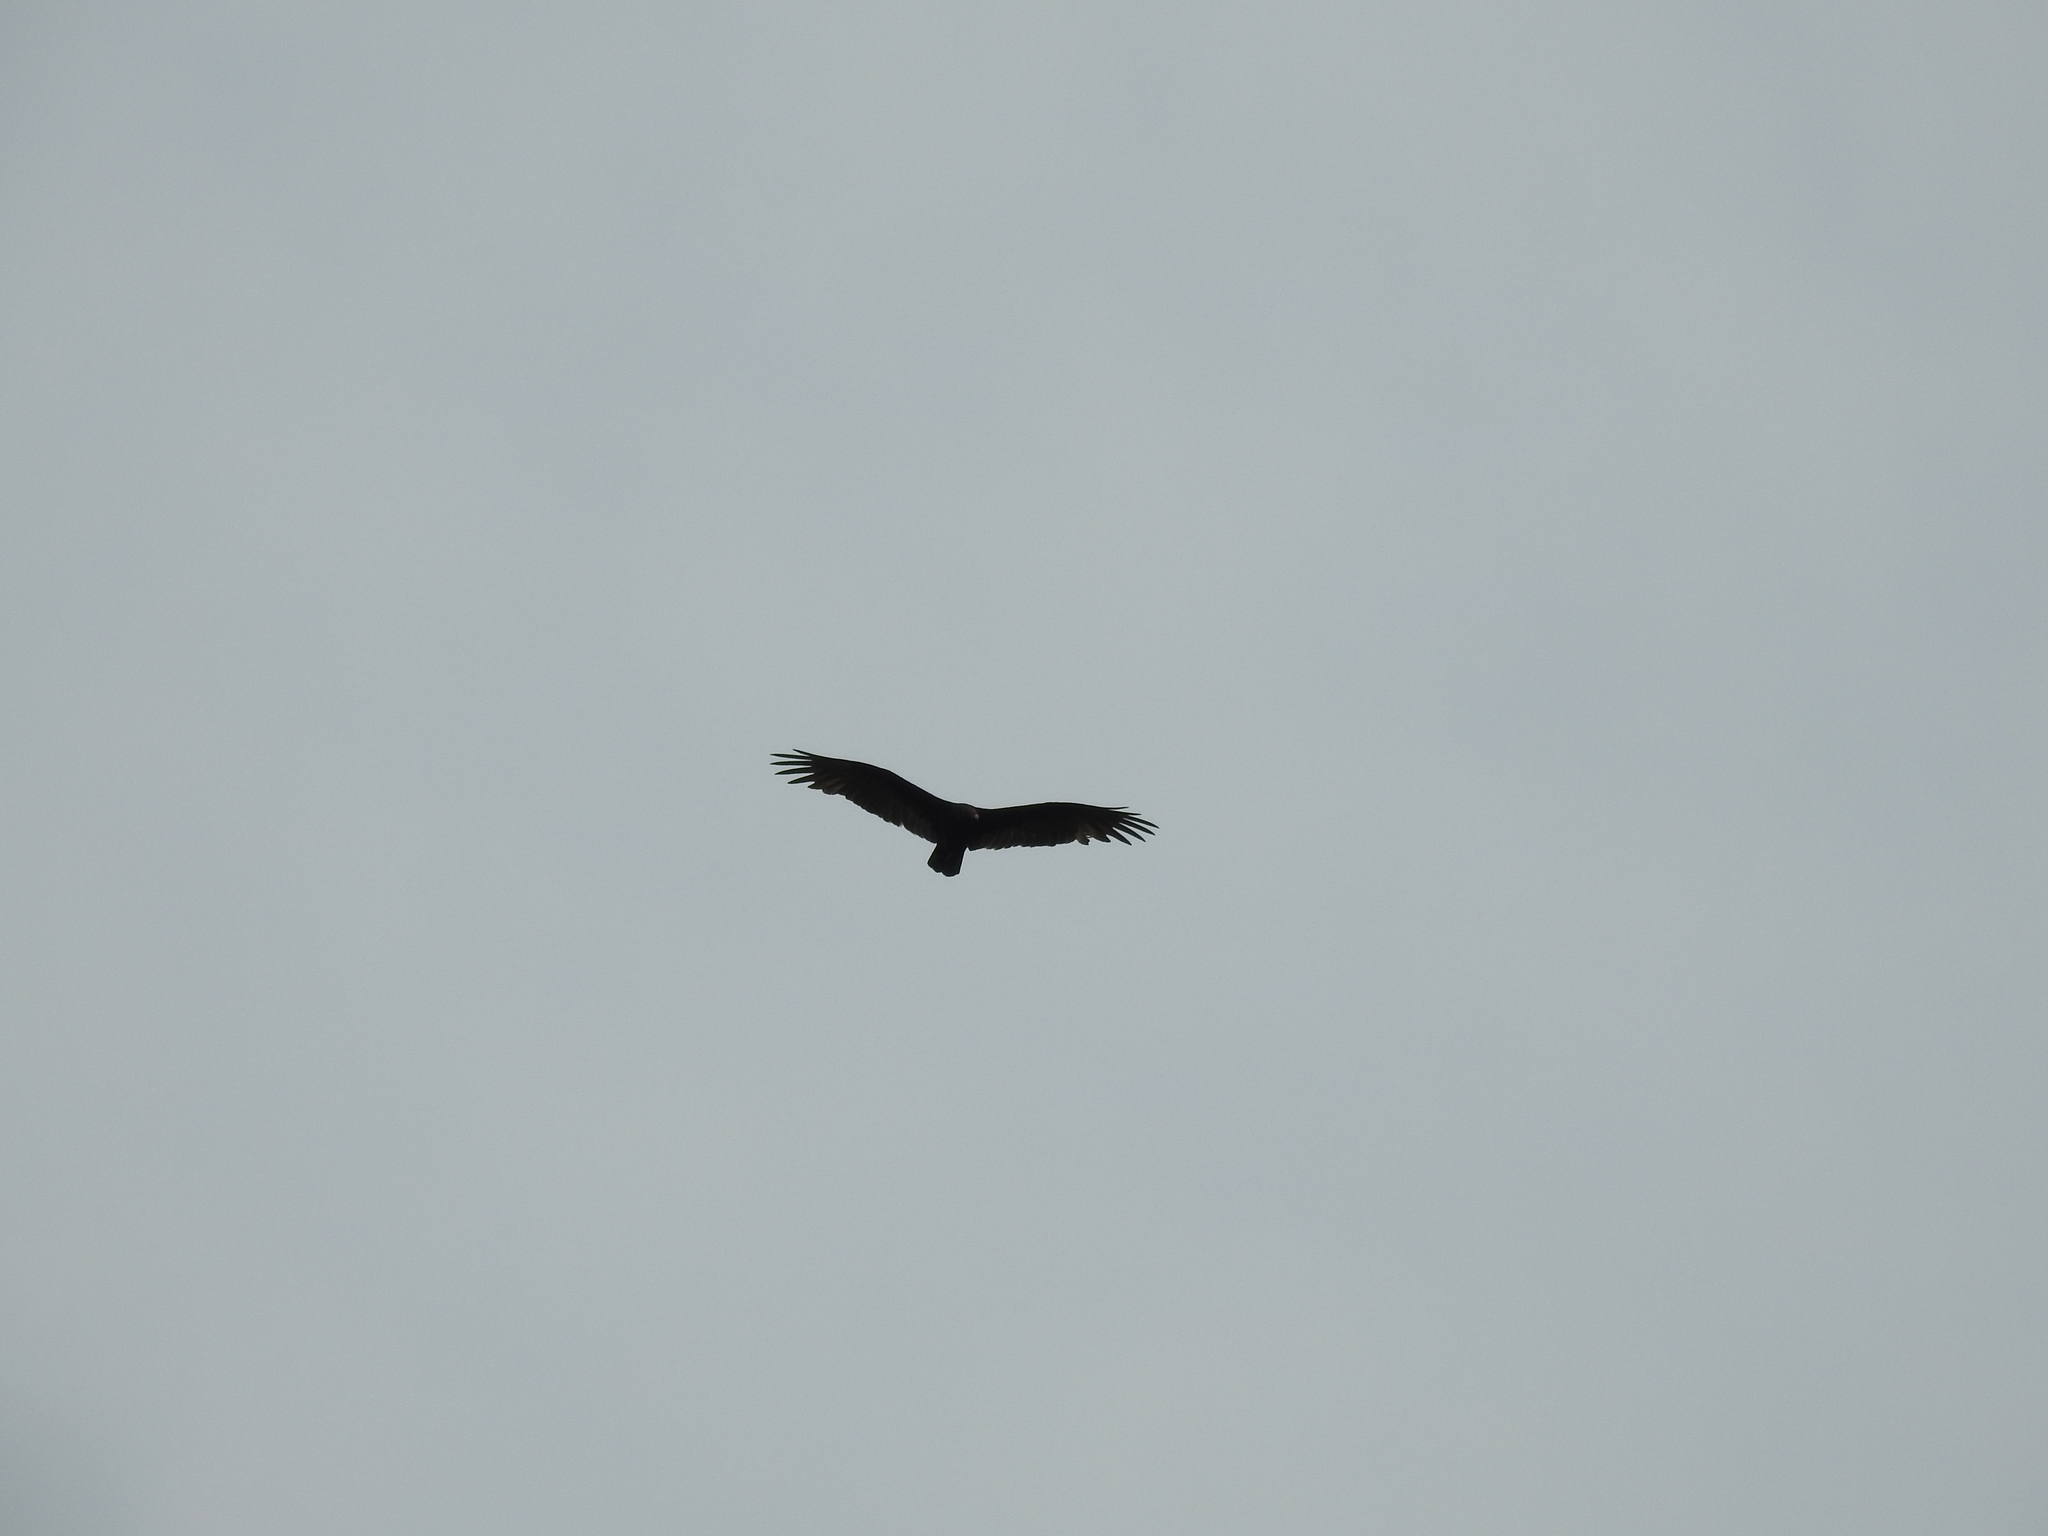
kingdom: Animalia
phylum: Chordata
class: Aves
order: Accipitriformes
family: Cathartidae
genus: Cathartes
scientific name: Cathartes aura
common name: Turkey vulture
